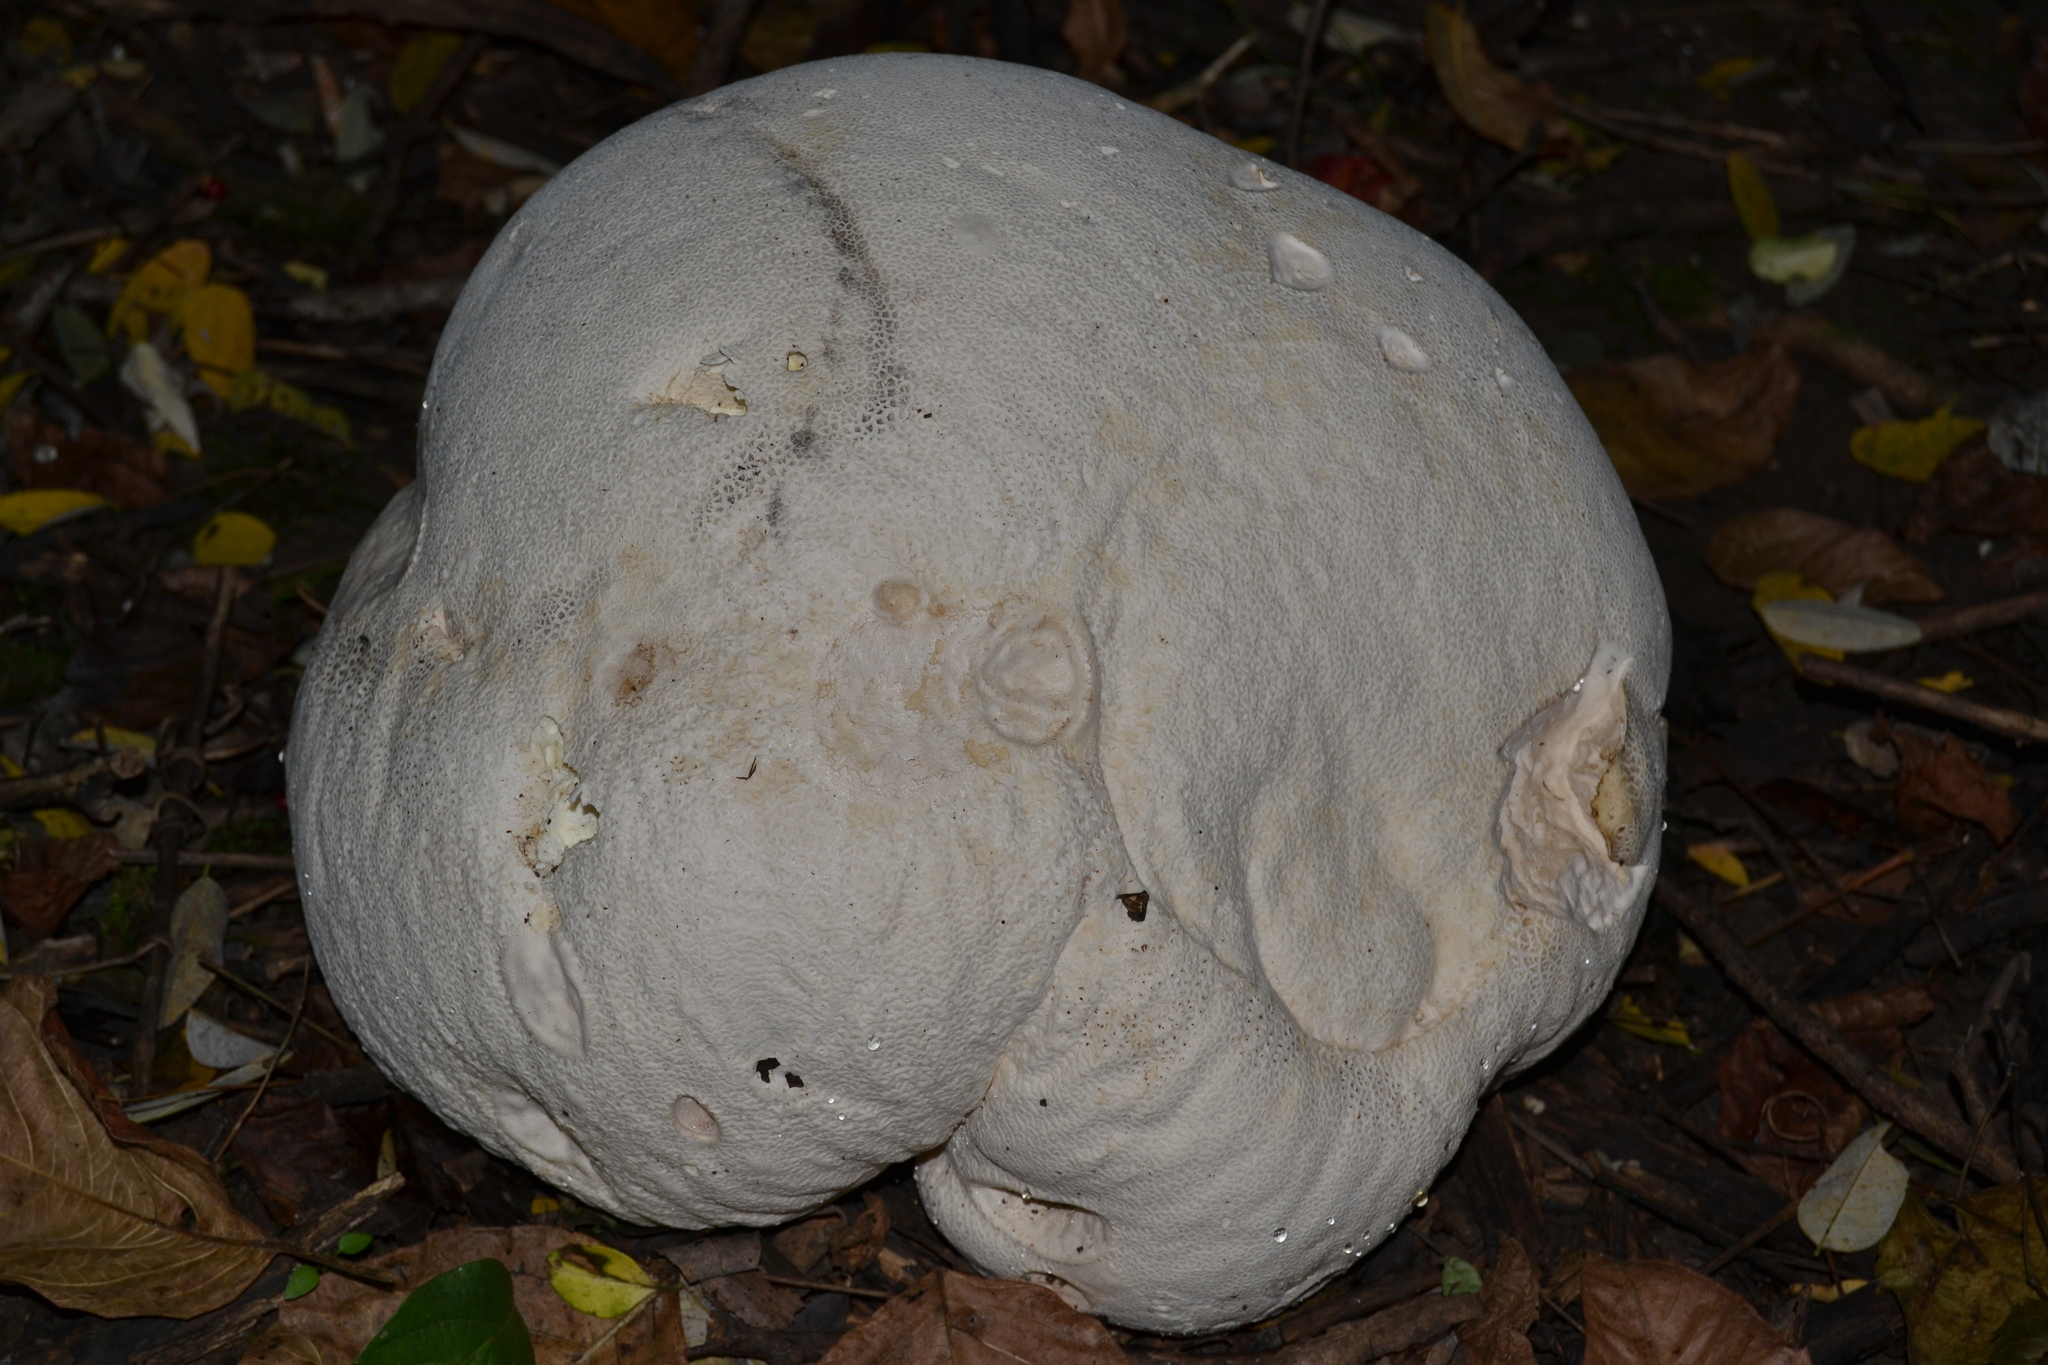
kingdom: Fungi
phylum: Basidiomycota
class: Agaricomycetes
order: Agaricales
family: Lycoperdaceae
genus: Calvatia
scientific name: Calvatia gigantea
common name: Giant puffball
